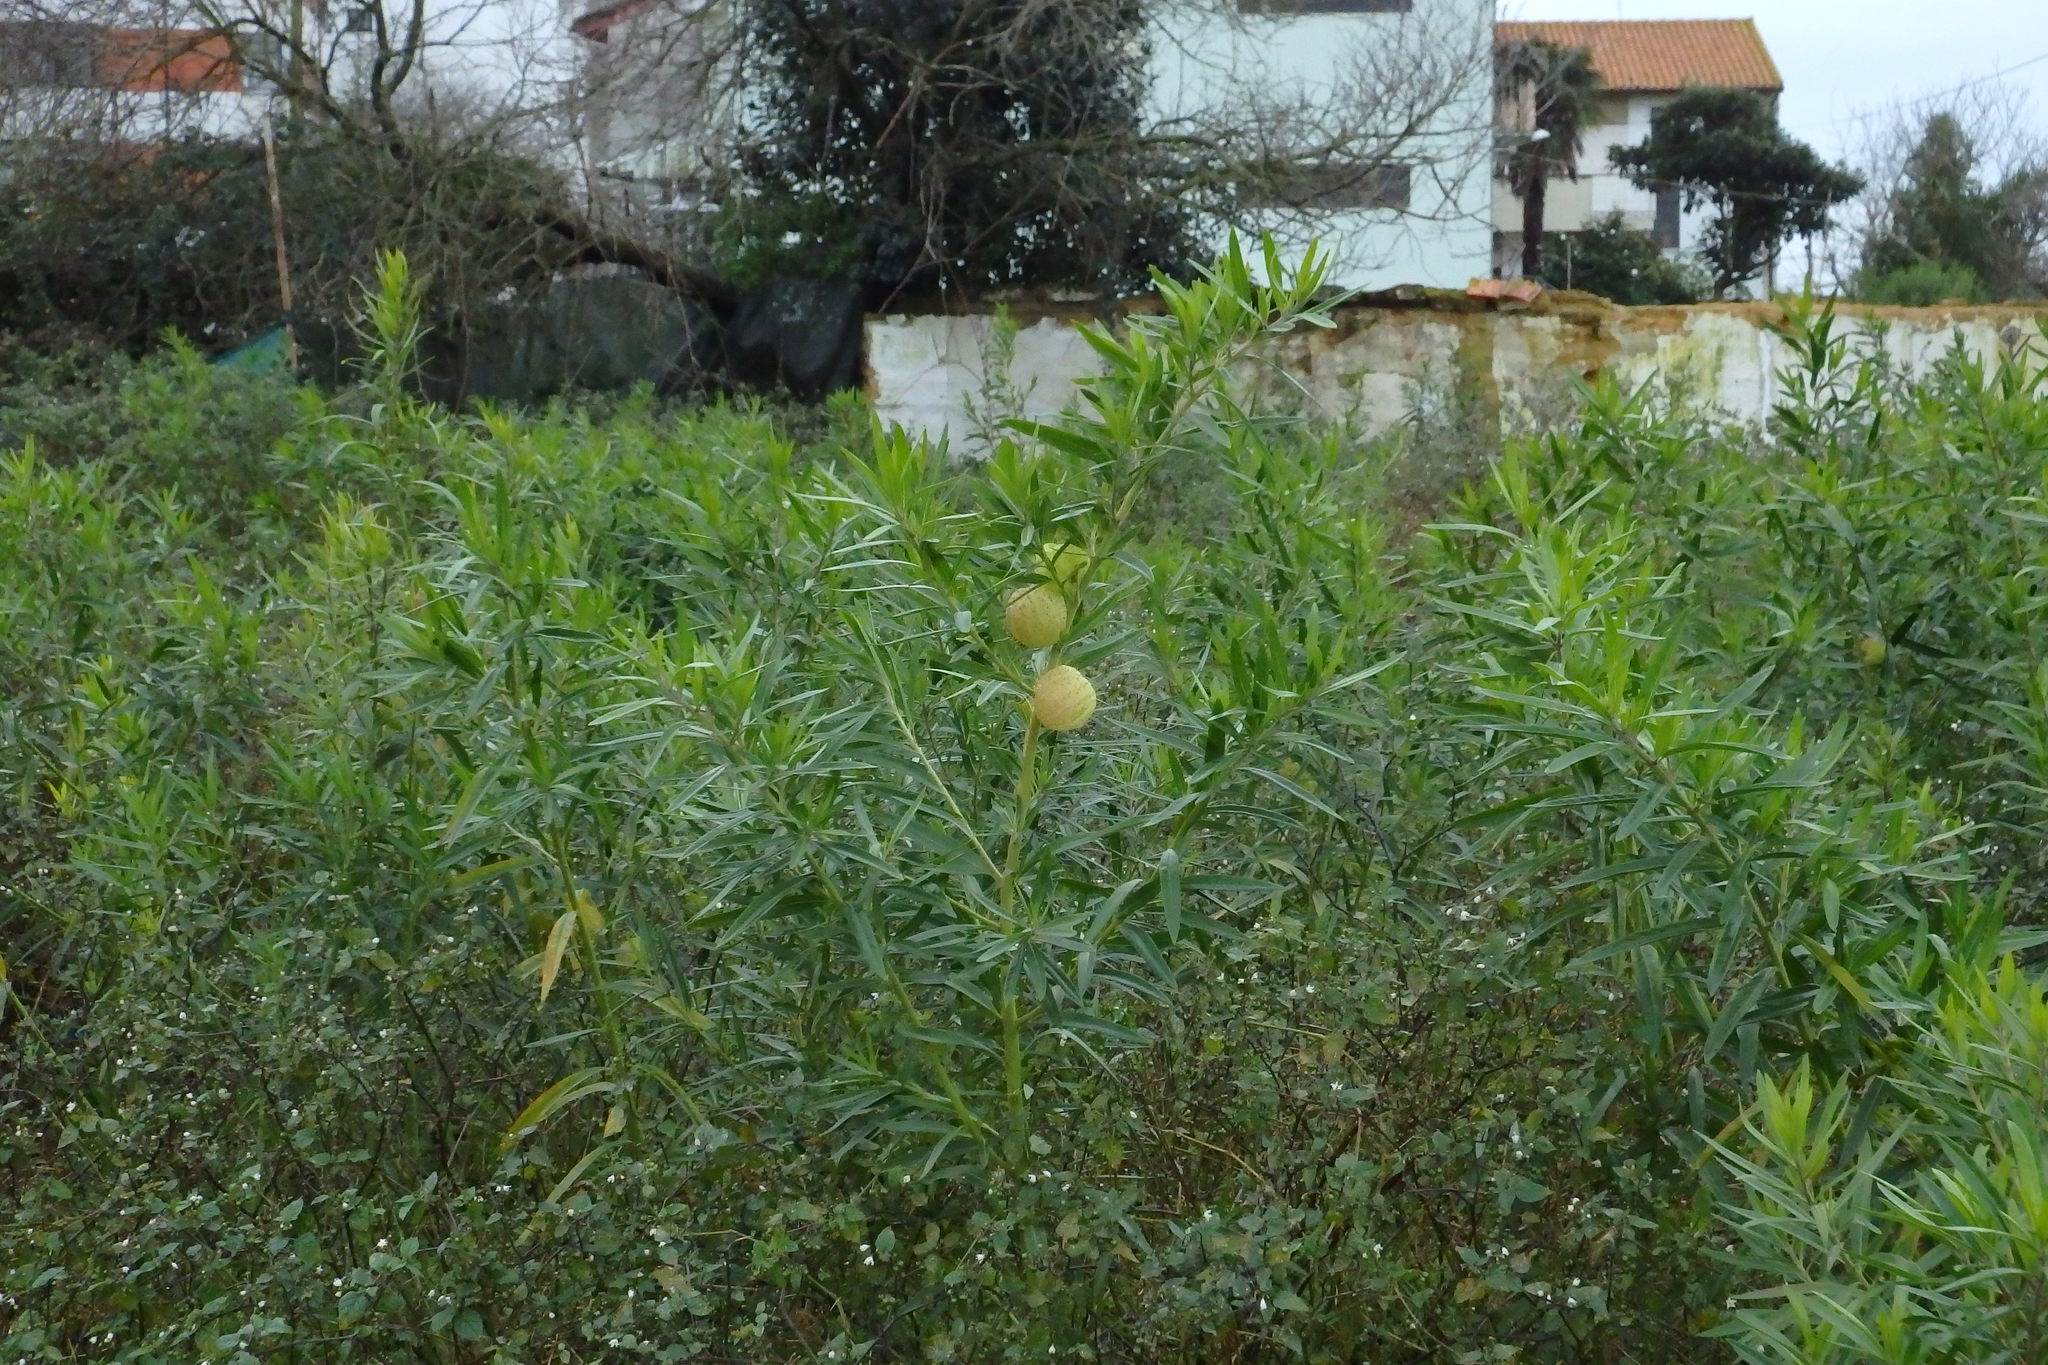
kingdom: Plantae
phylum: Tracheophyta
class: Magnoliopsida
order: Gentianales
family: Apocynaceae
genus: Gomphocarpus
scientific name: Gomphocarpus physocarpus
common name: Balloon cotton bush
